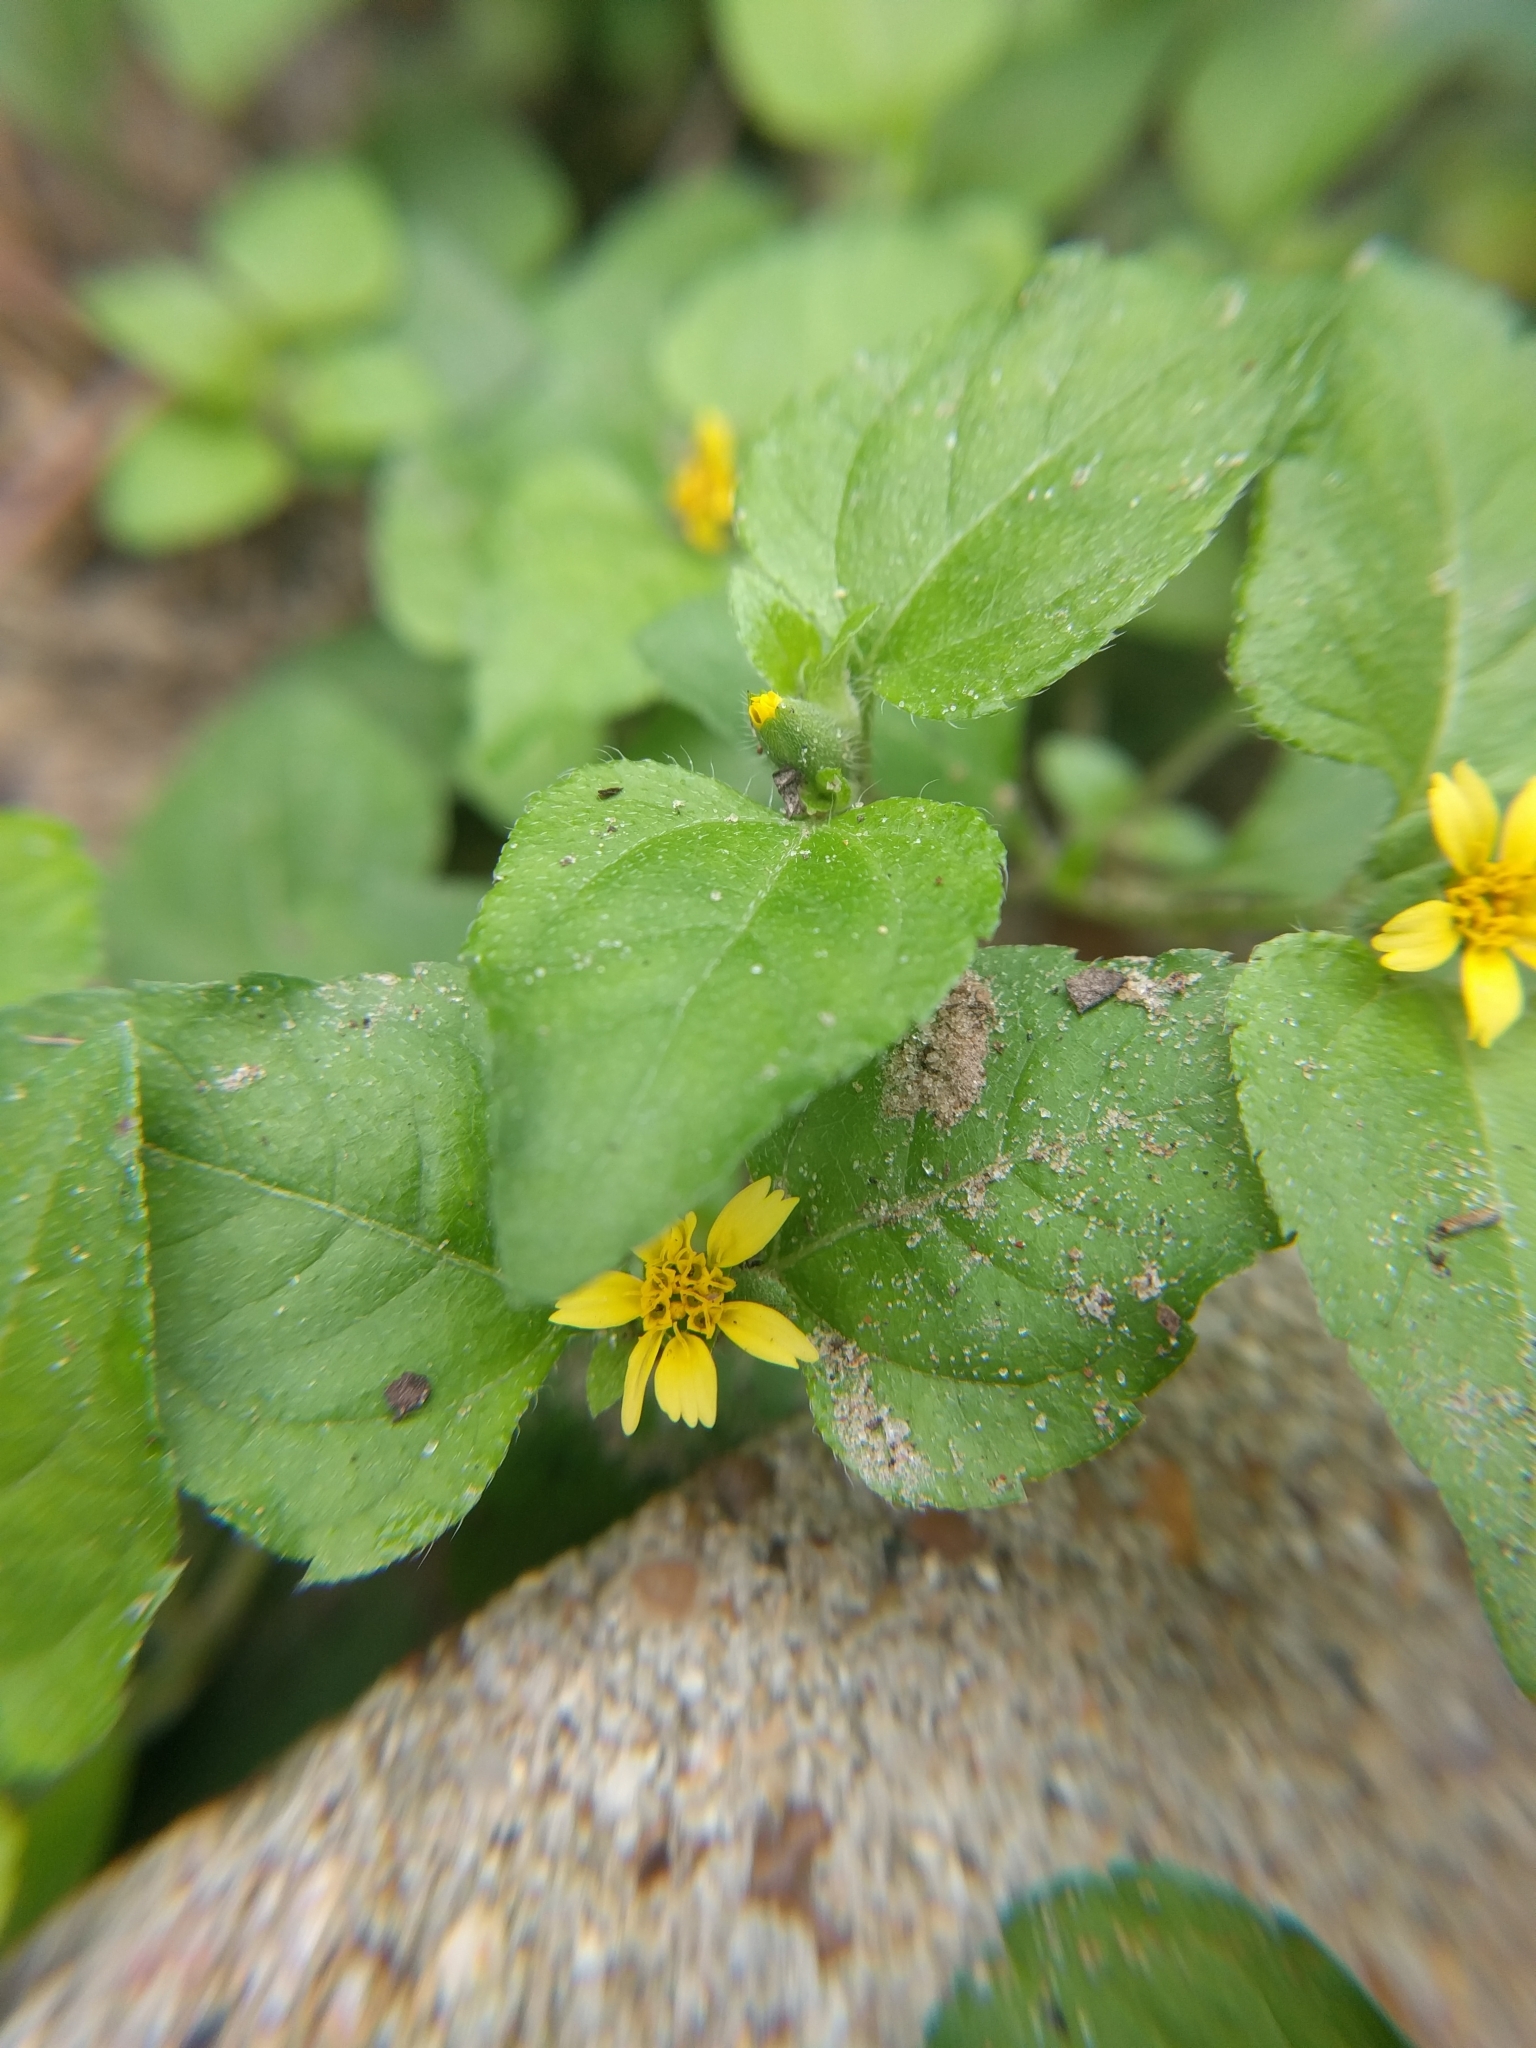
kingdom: Plantae
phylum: Tracheophyta
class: Magnoliopsida
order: Asterales
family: Asteraceae
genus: Calyptocarpus
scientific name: Calyptocarpus vialis
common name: Straggler daisy
